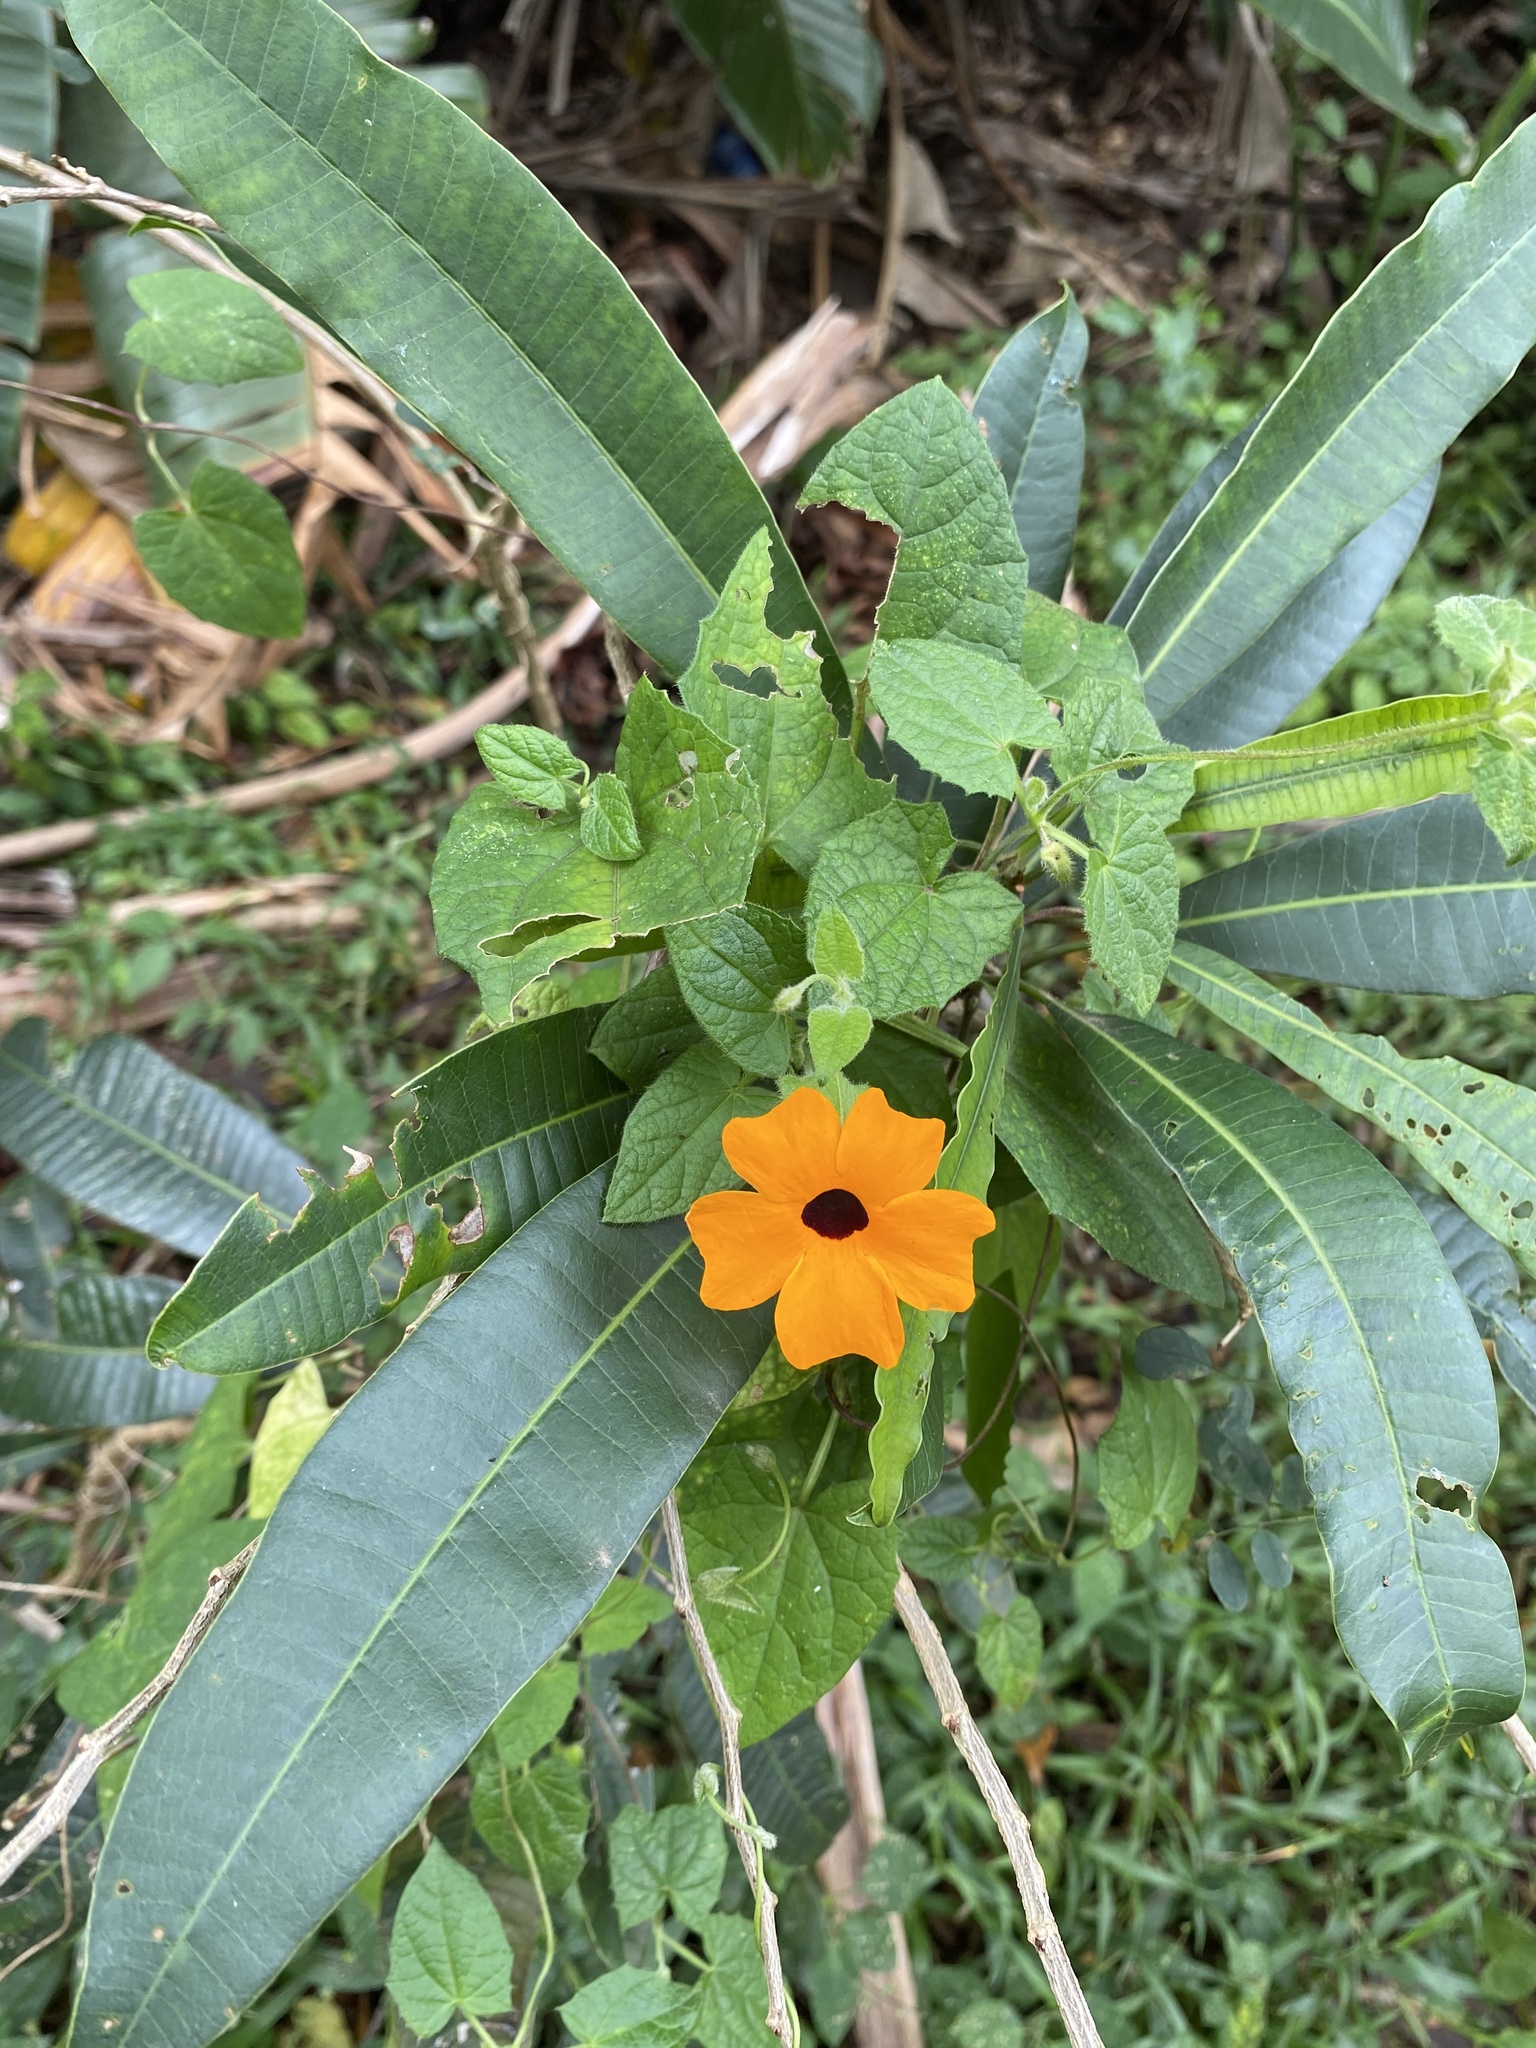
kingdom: Plantae
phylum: Tracheophyta
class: Magnoliopsida
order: Lamiales
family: Acanthaceae
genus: Thunbergia
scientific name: Thunbergia alata
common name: Blackeyed susan vine
